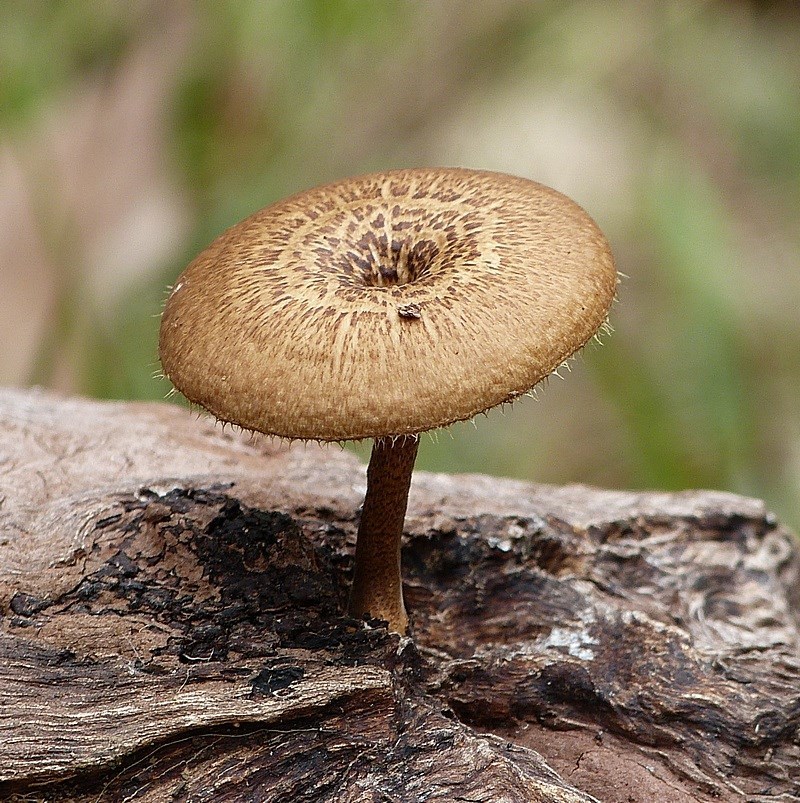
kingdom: Fungi
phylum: Basidiomycota
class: Agaricomycetes
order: Polyporales
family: Polyporaceae
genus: Lentinus
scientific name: Lentinus arcularius
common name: Spring polypore
